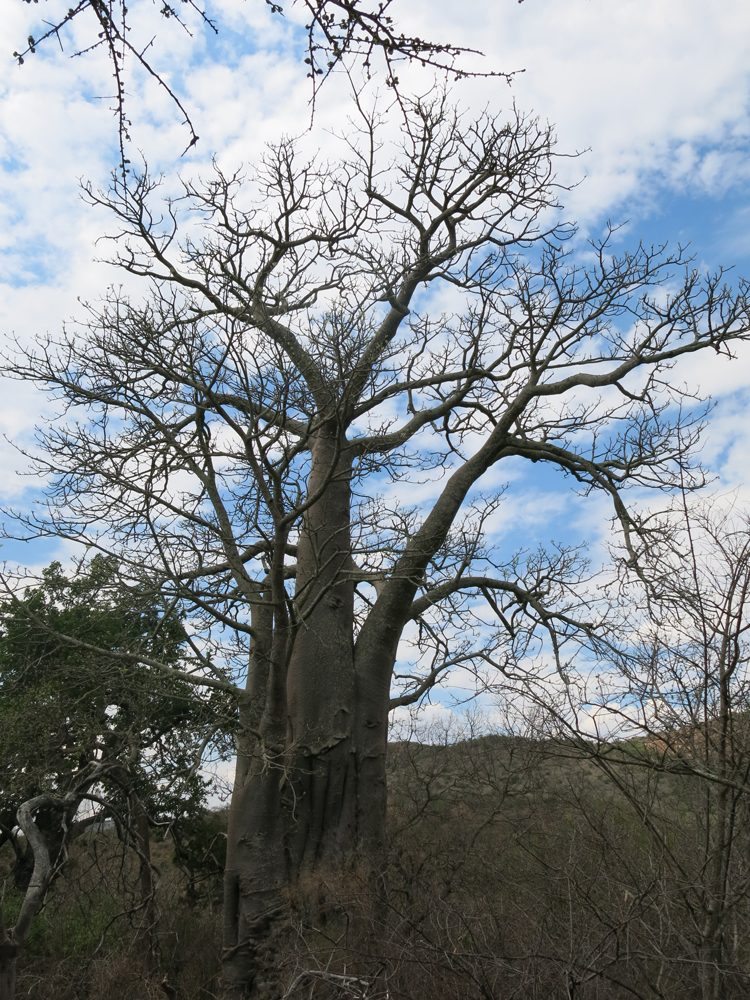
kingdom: Plantae
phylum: Tracheophyta
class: Magnoliopsida
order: Malvales
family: Malvaceae
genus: Adansonia
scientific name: Adansonia digitata
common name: Dead-rat-tree
